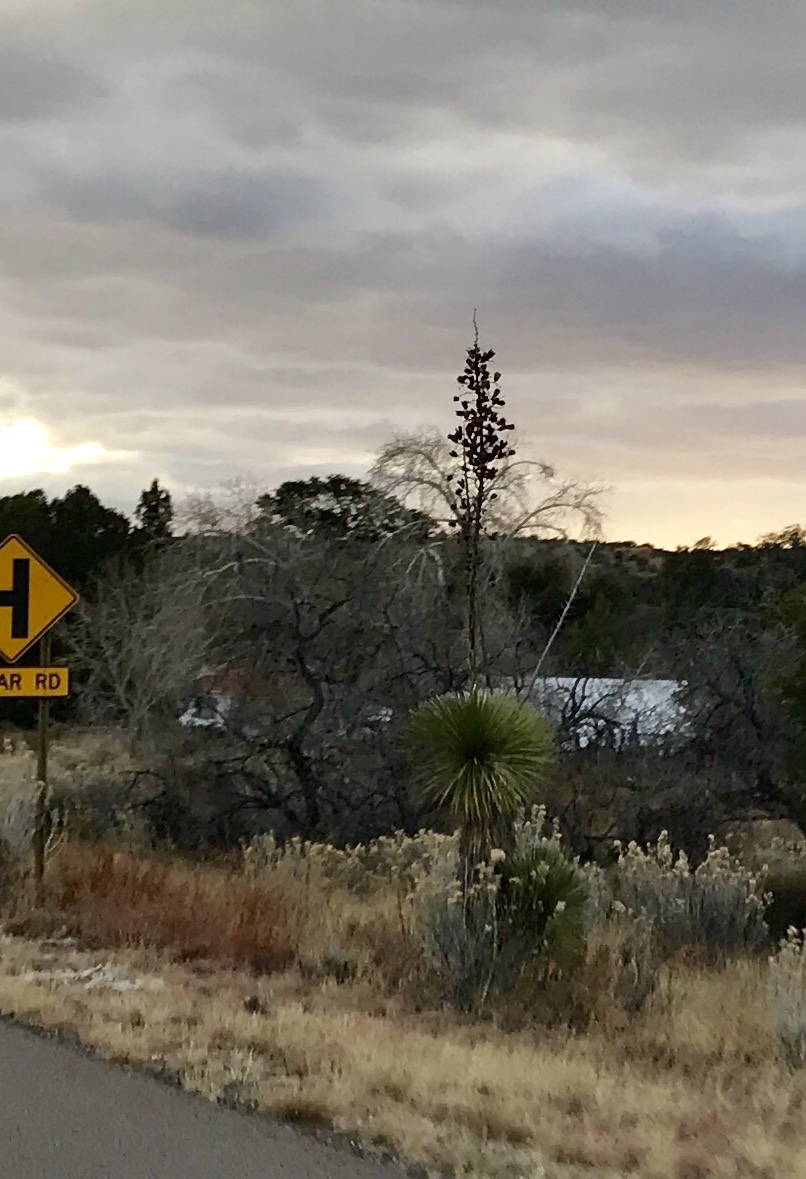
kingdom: Plantae
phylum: Tracheophyta
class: Liliopsida
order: Asparagales
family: Asparagaceae
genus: Yucca
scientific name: Yucca elata
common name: Palmella
